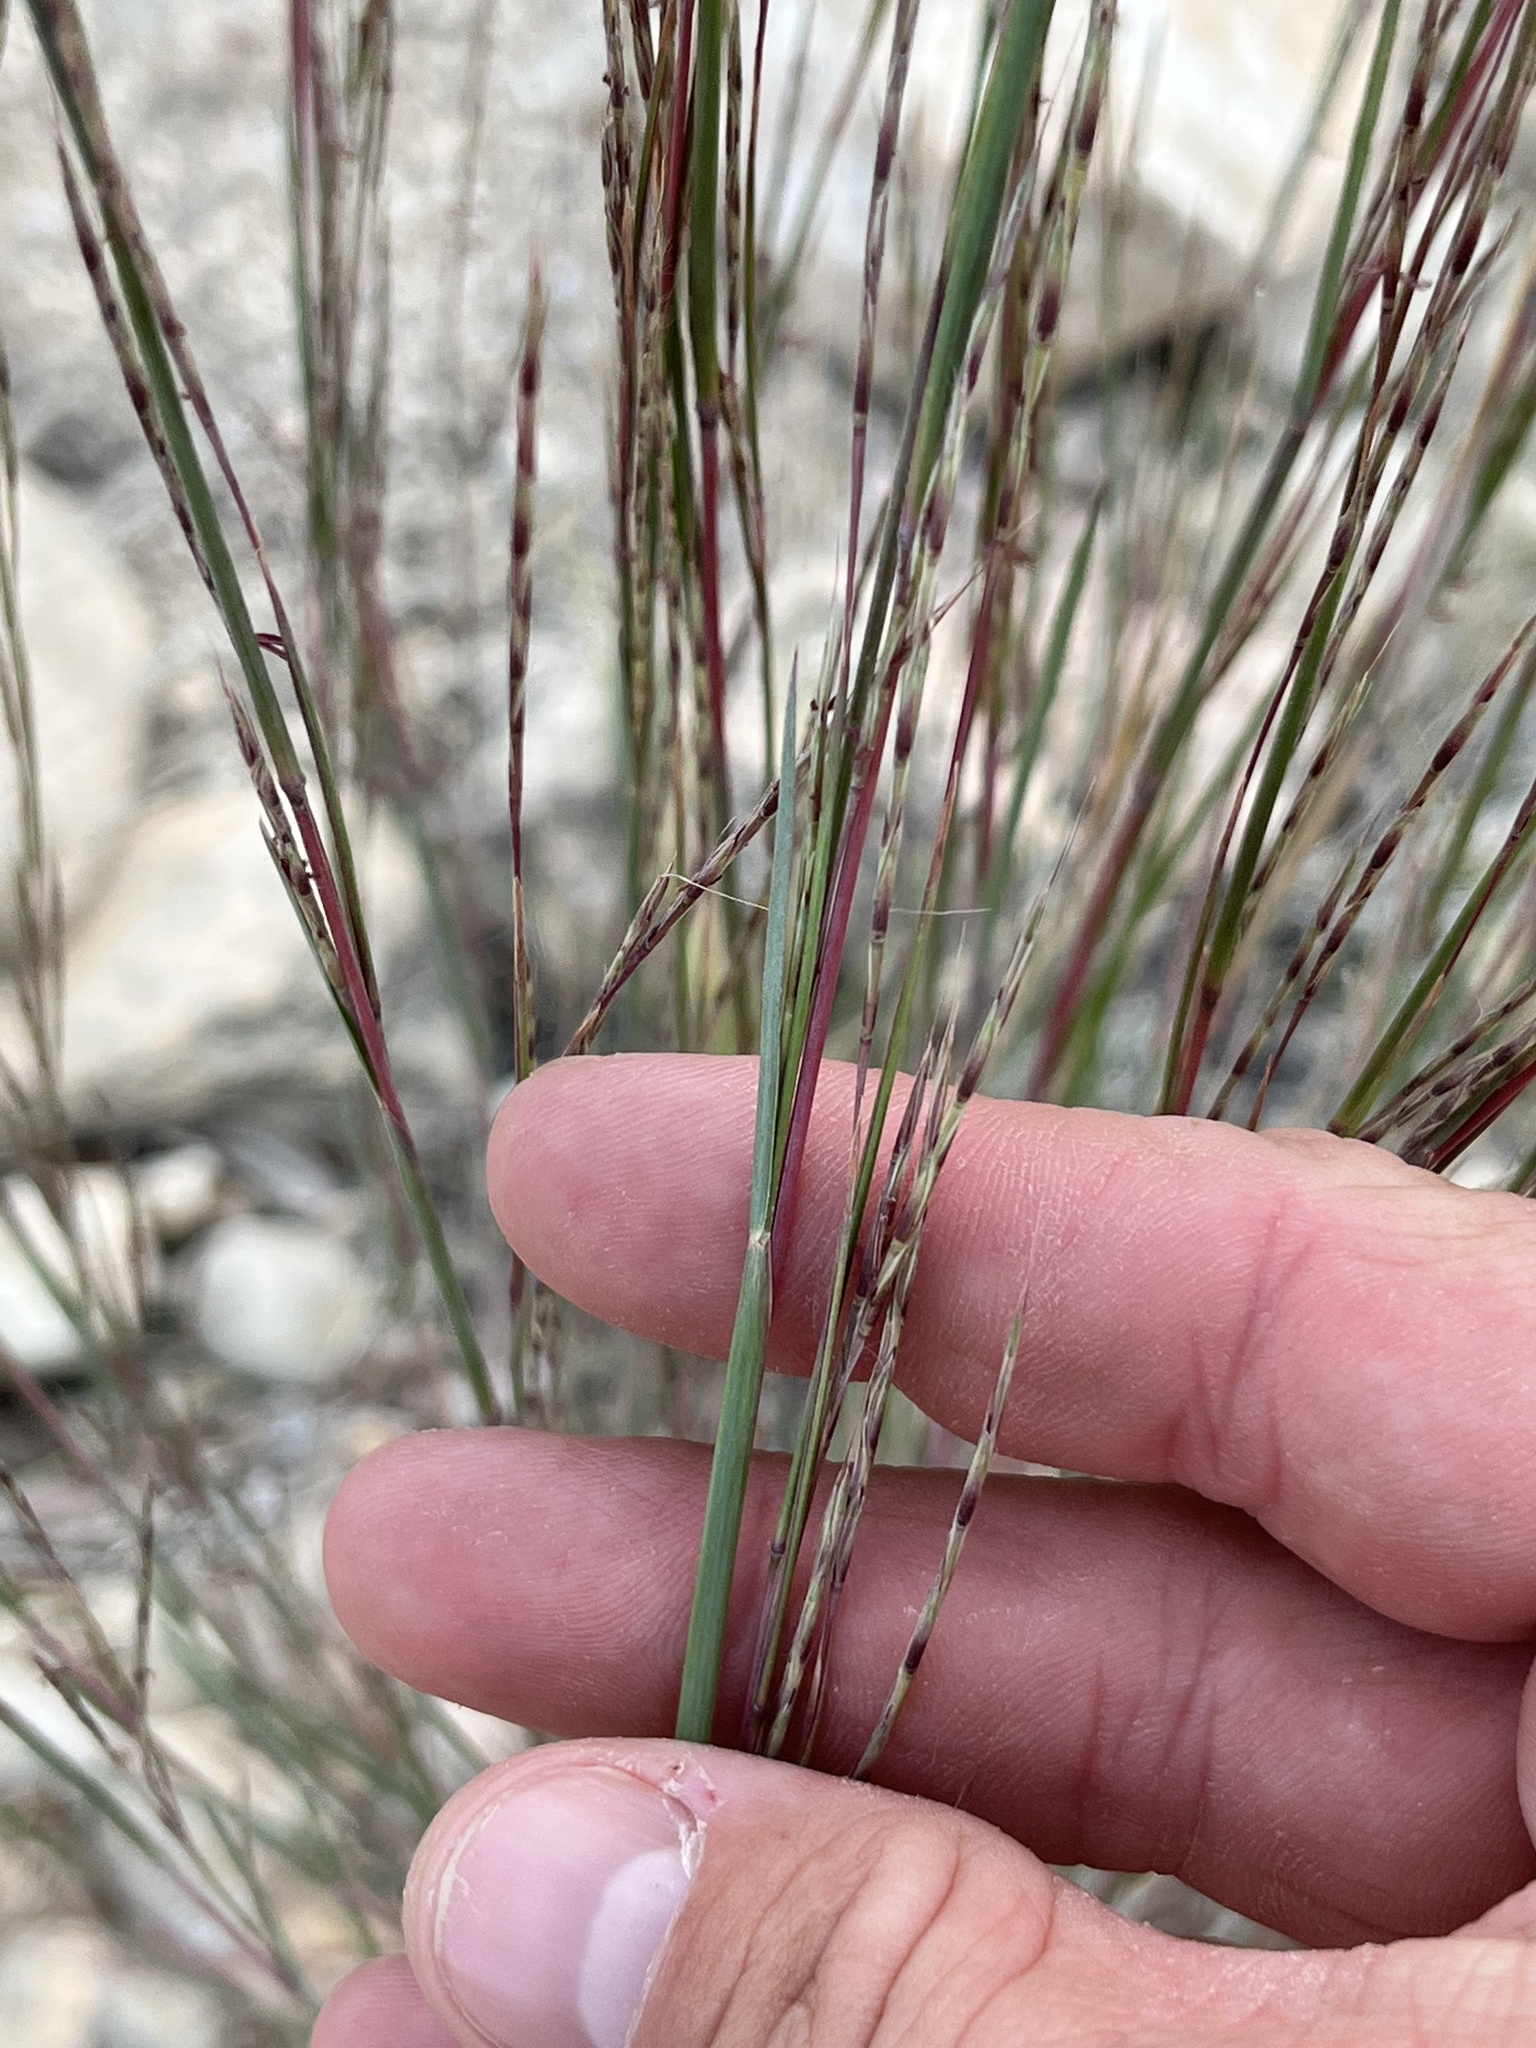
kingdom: Plantae
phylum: Tracheophyta
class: Liliopsida
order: Poales
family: Poaceae
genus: Schizachyrium
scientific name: Schizachyrium scoparium
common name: Little bluestem
